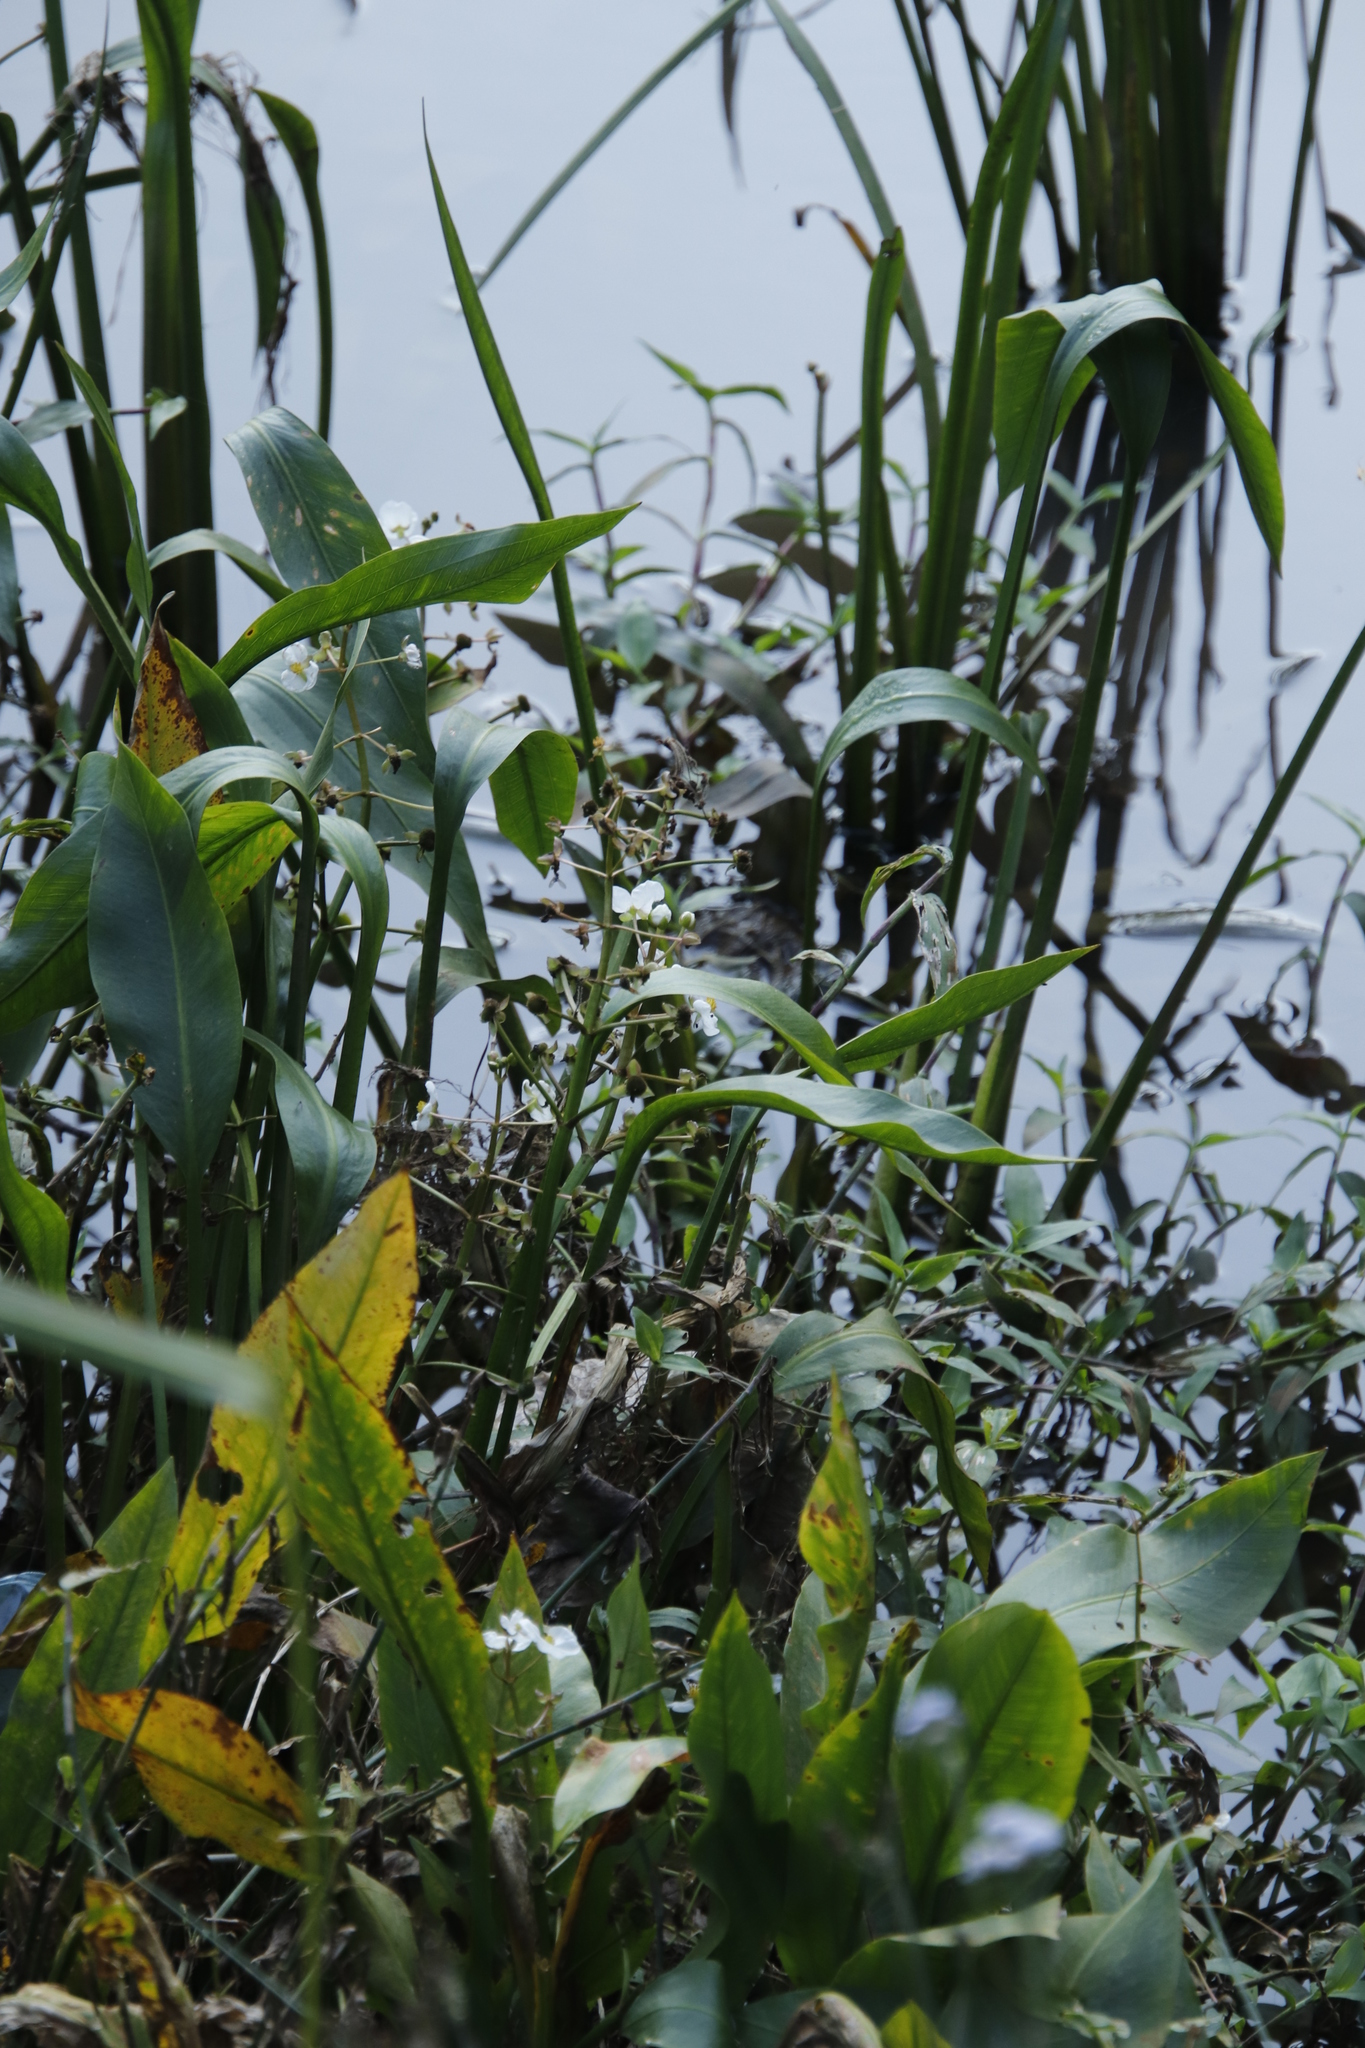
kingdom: Plantae
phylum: Tracheophyta
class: Liliopsida
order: Alismatales
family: Alismataceae
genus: Alisma
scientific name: Alisma plantago-aquatica
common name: Water-plantain
